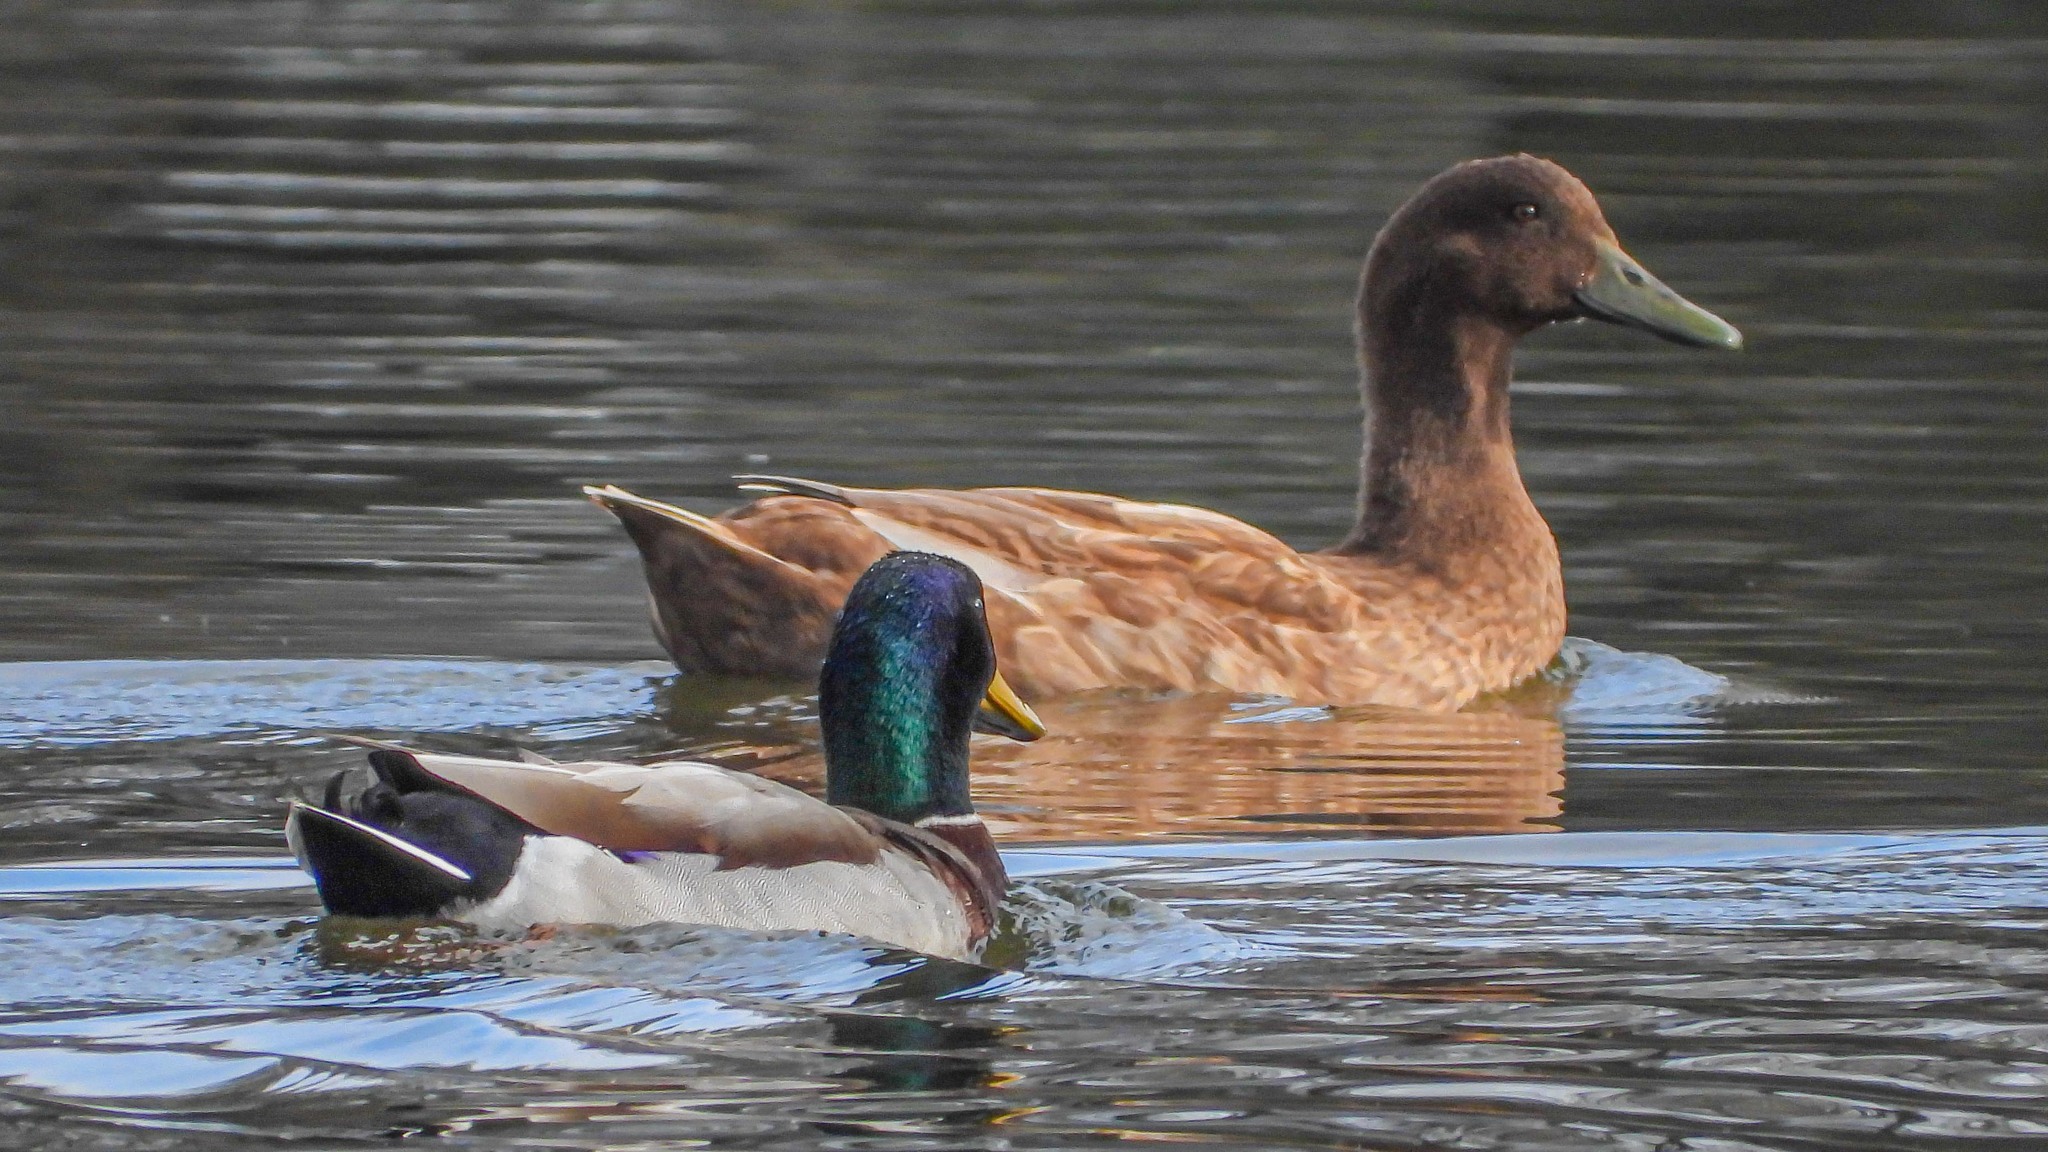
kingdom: Animalia
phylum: Chordata
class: Aves
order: Anseriformes
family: Anatidae
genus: Anas
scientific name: Anas platyrhynchos
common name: Mallard
